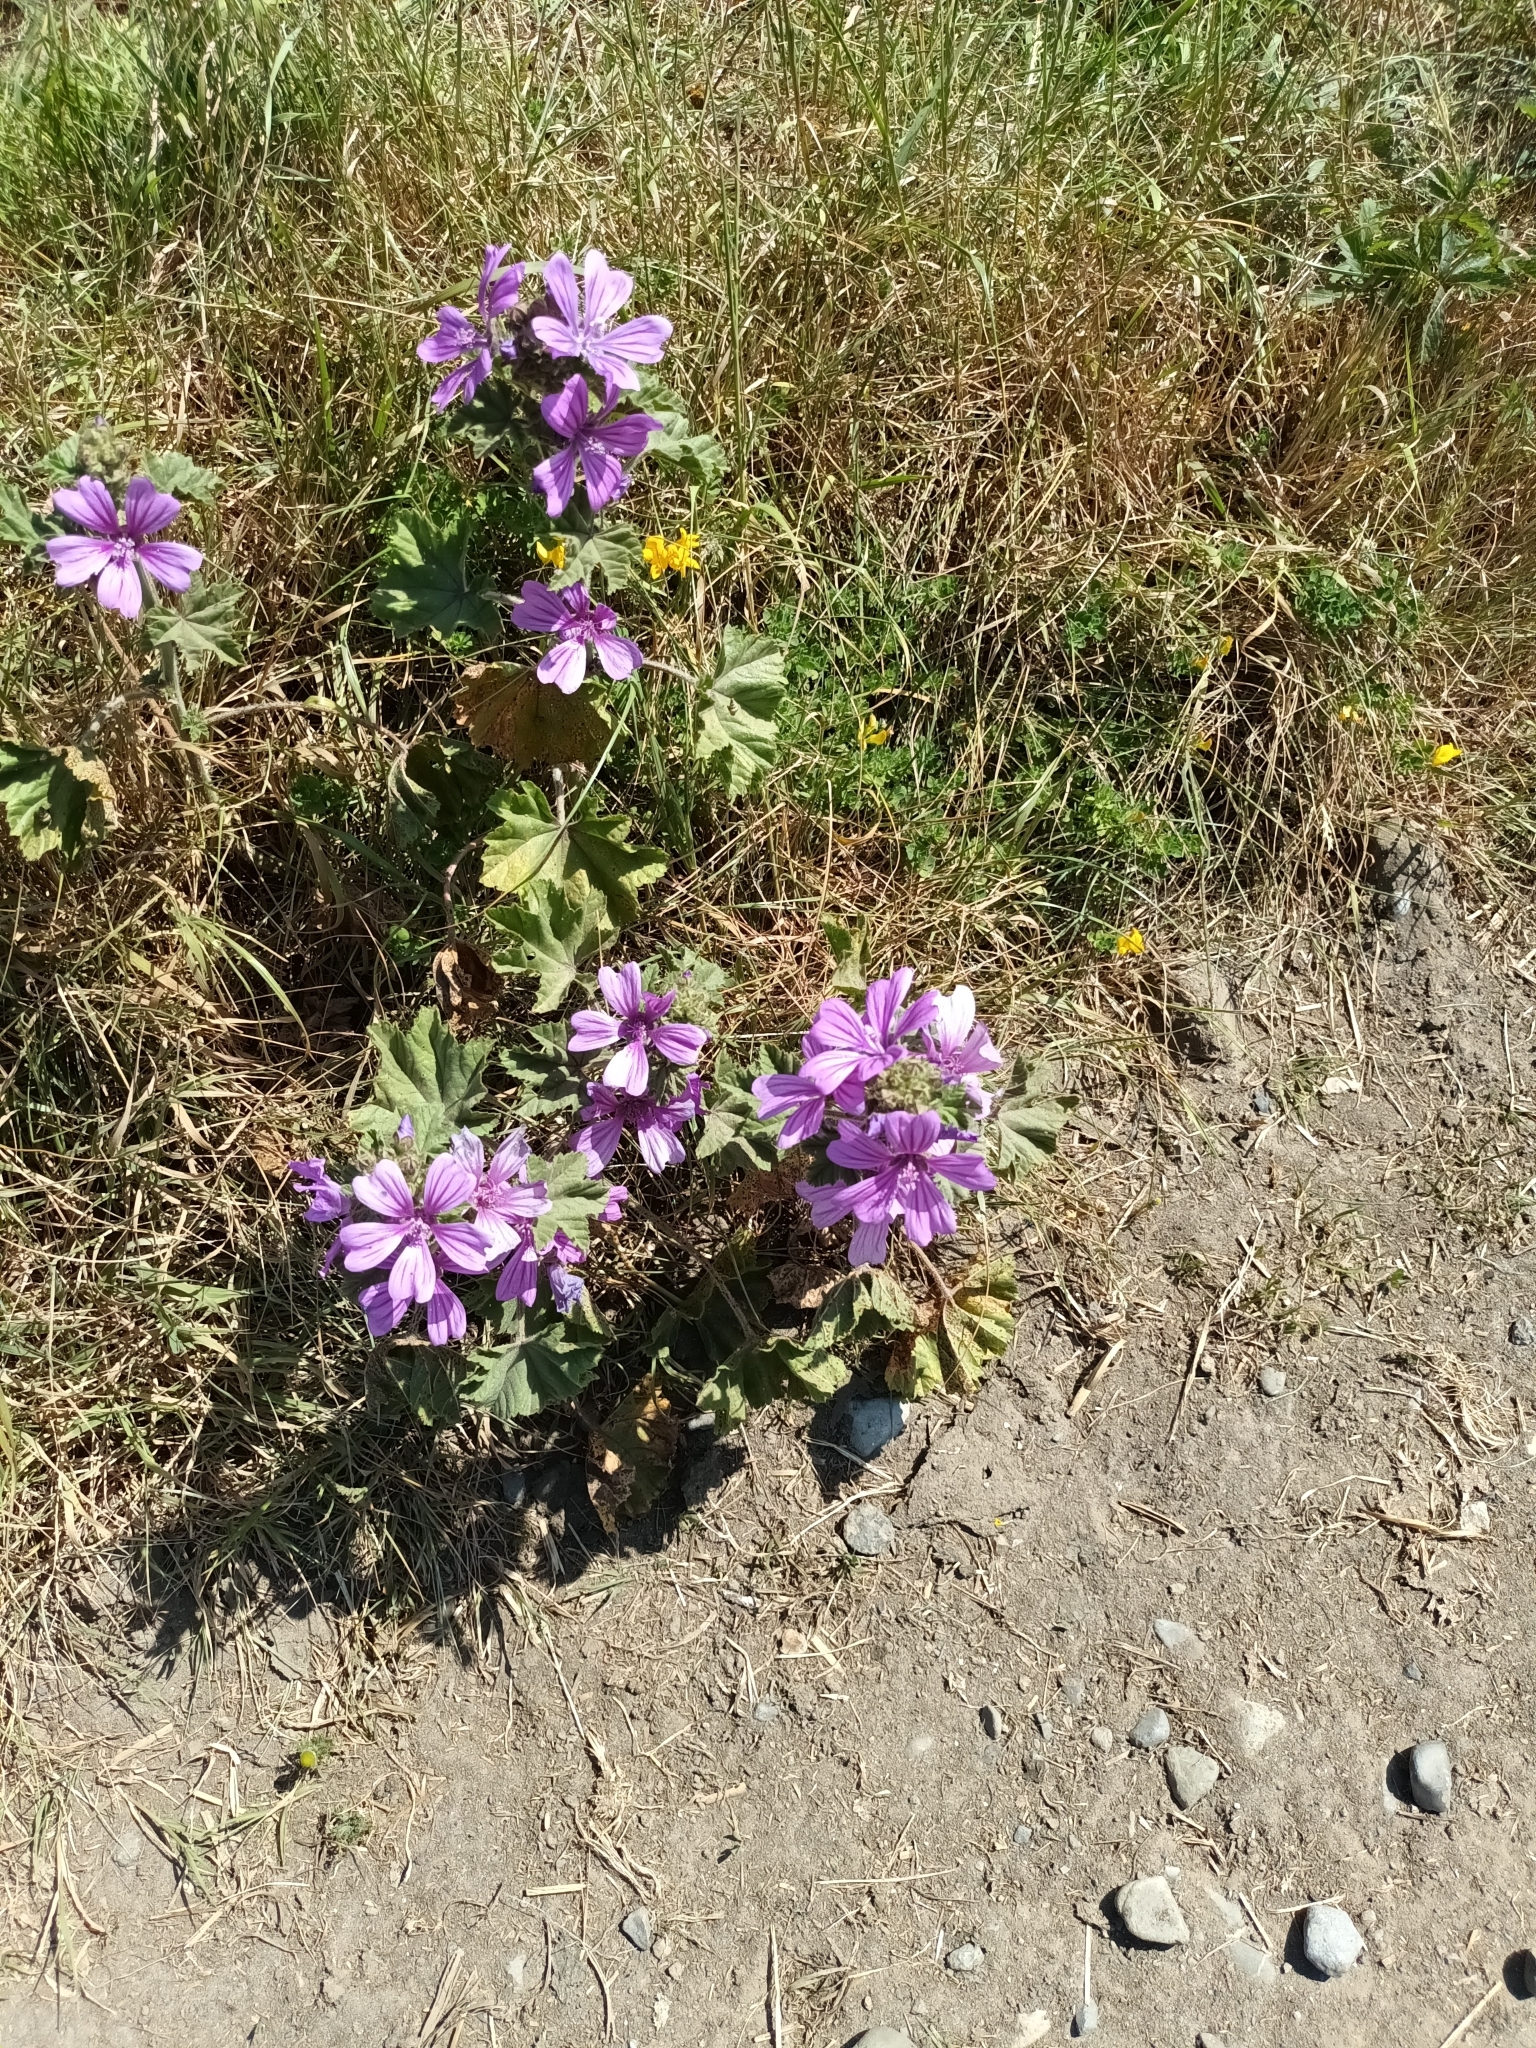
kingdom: Plantae
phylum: Tracheophyta
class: Magnoliopsida
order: Malvales
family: Malvaceae
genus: Malva
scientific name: Malva sylvestris
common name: Common mallow
